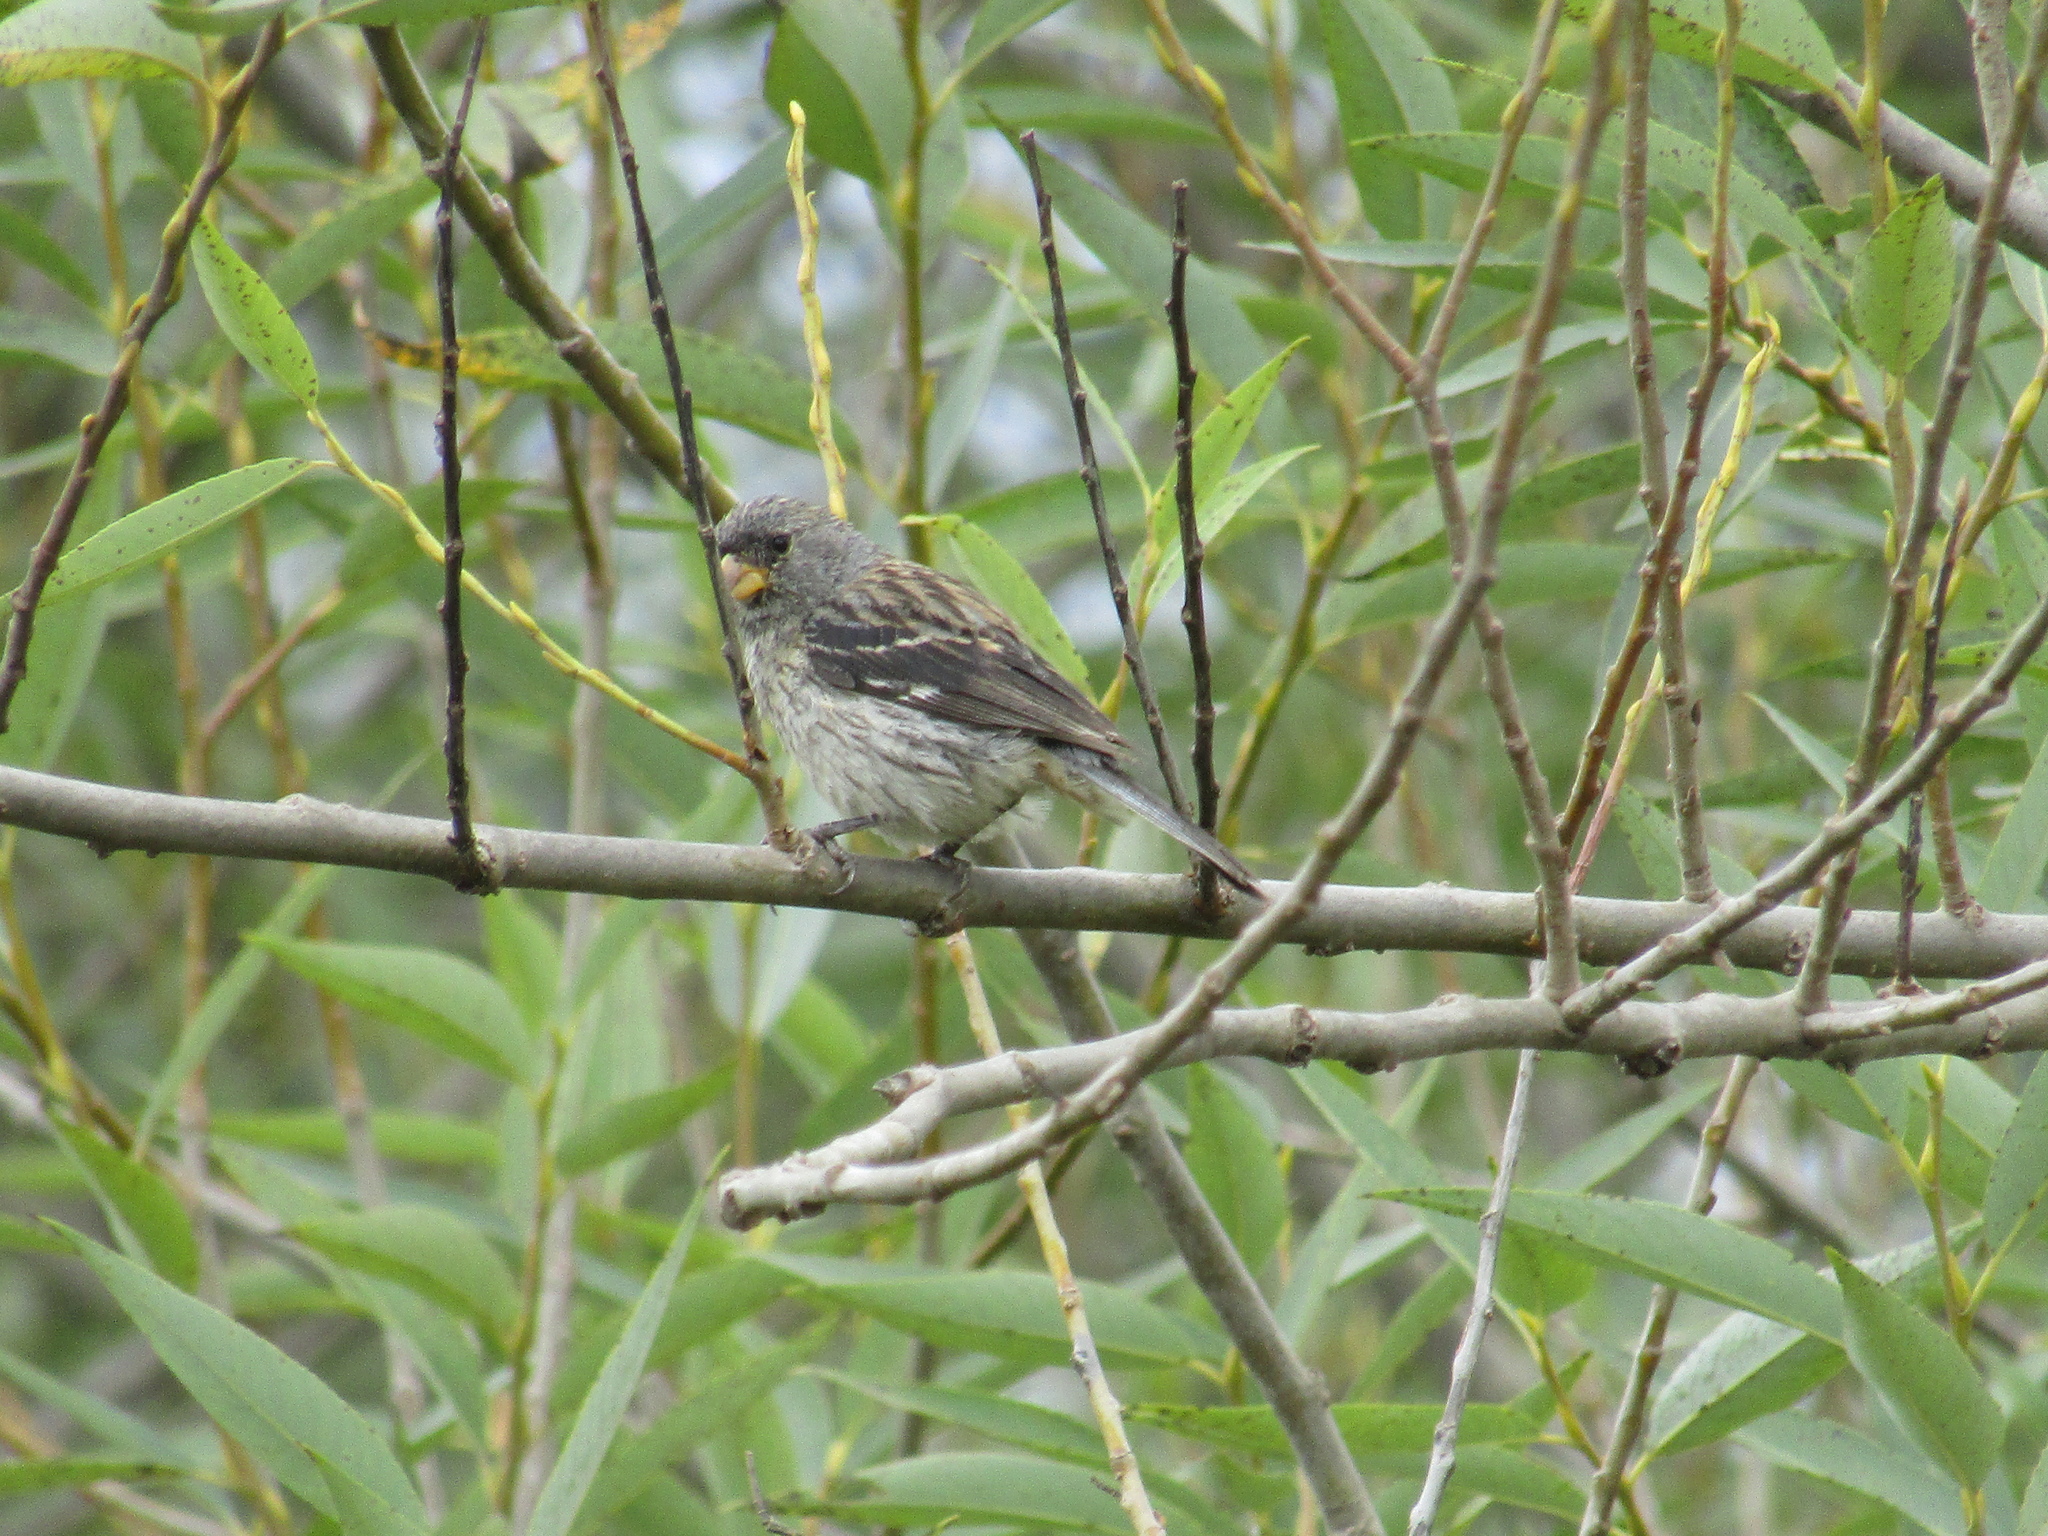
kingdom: Animalia
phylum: Chordata
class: Aves
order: Passeriformes
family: Thraupidae
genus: Catamenia
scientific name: Catamenia analis
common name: Band-tailed seedeater
